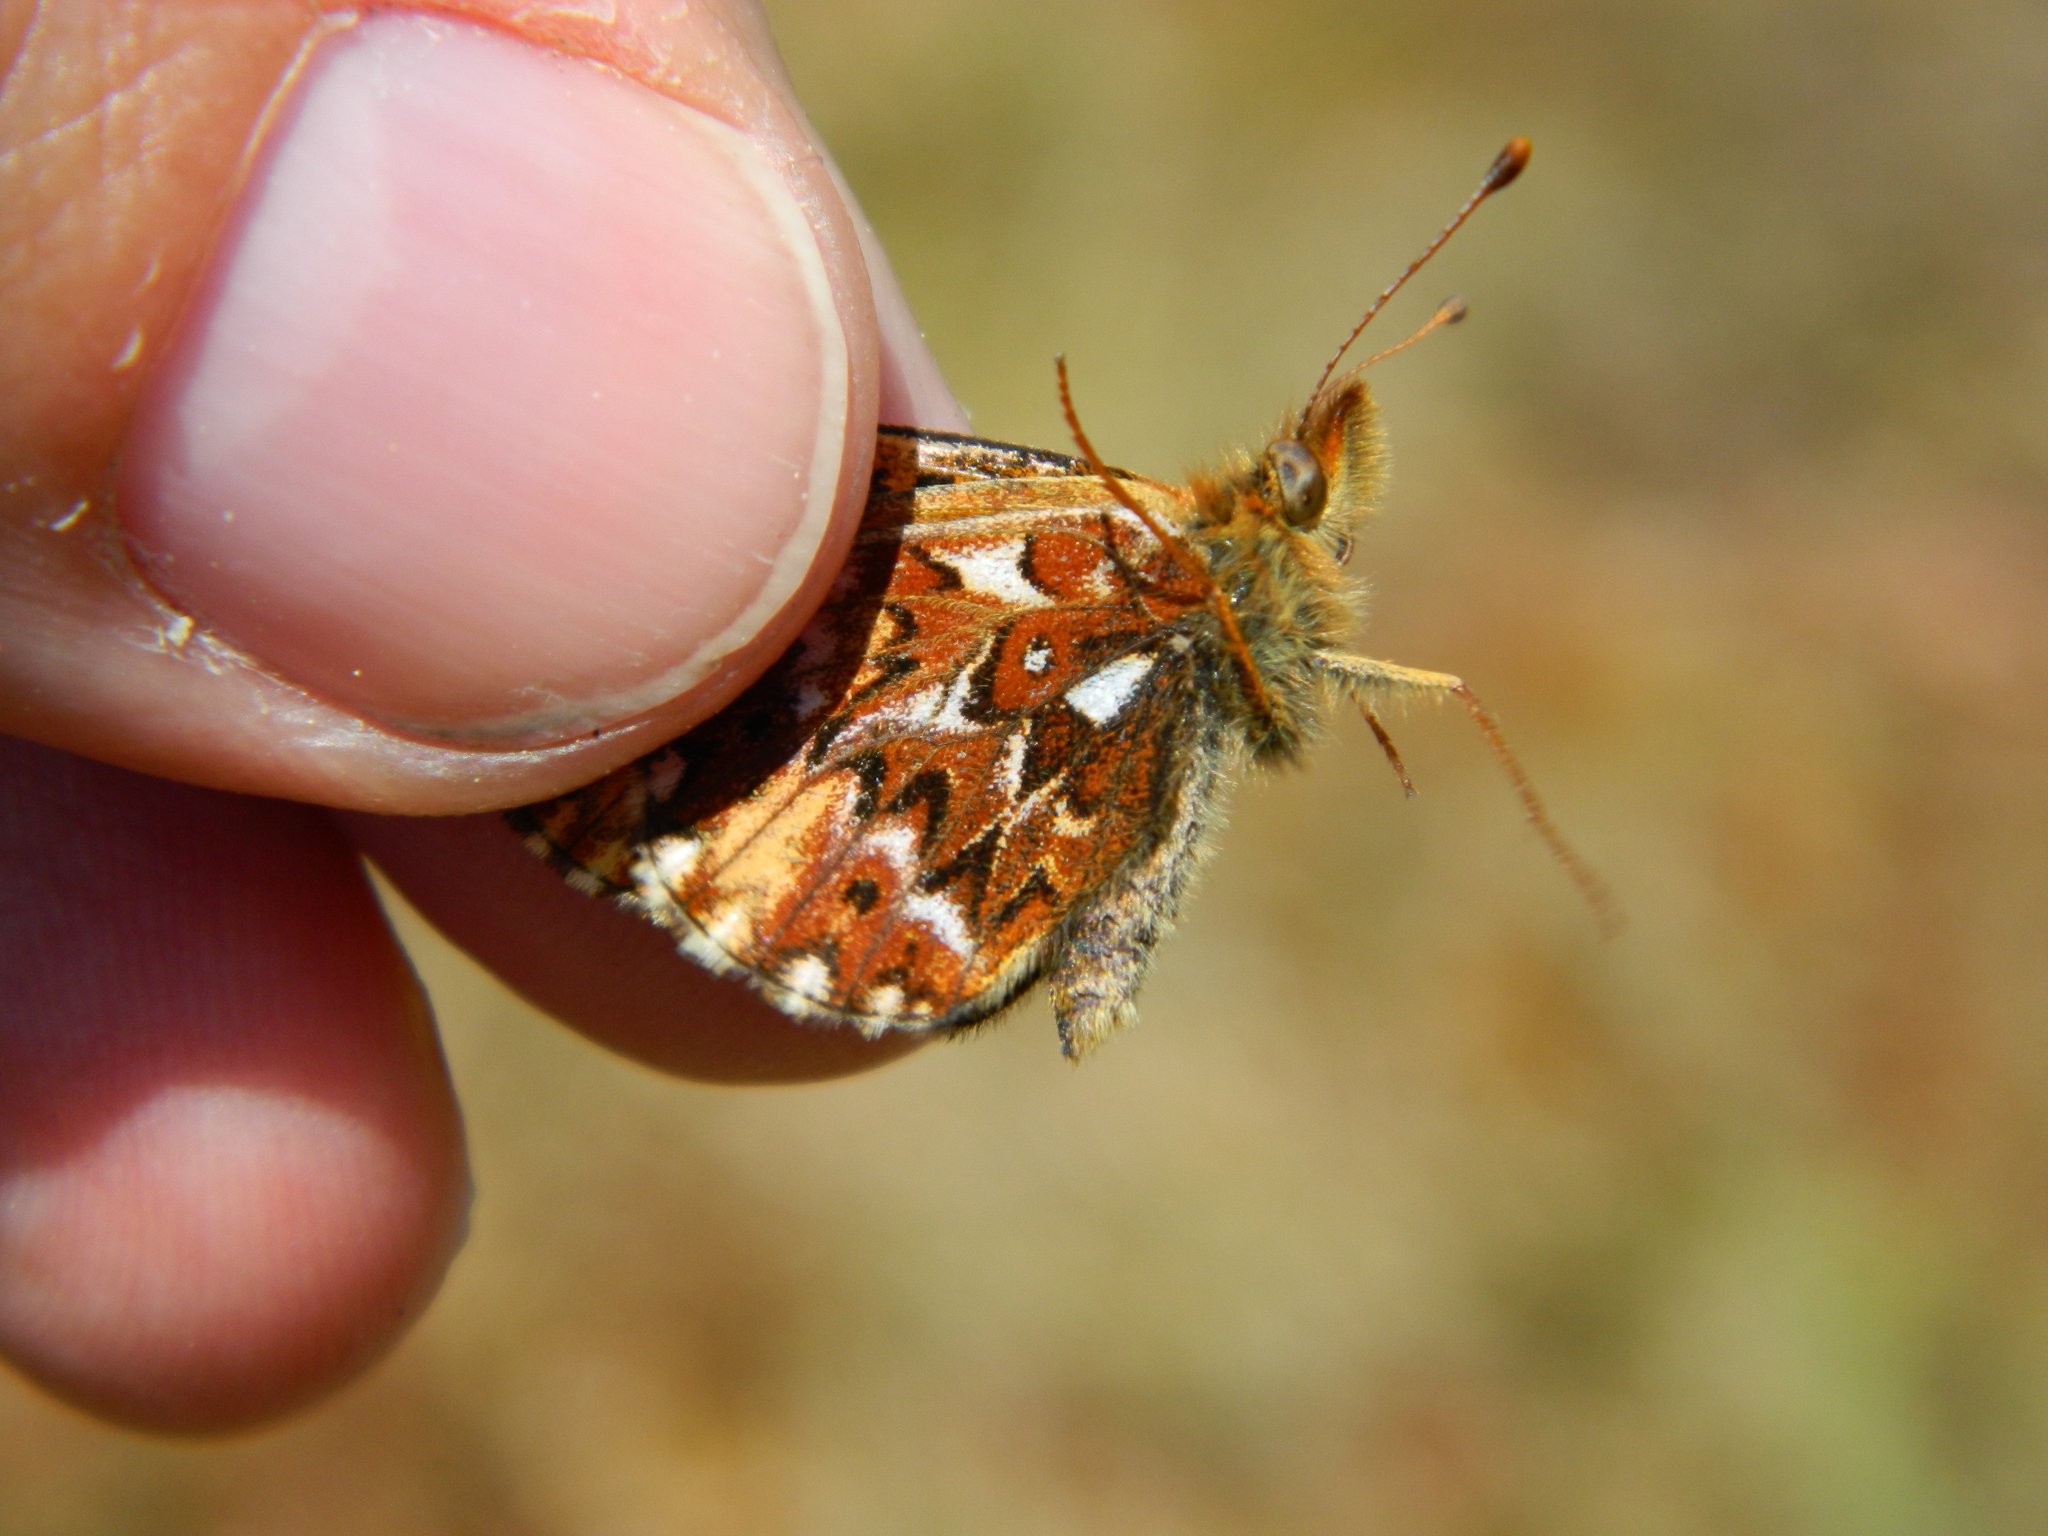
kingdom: Animalia
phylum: Arthropoda
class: Insecta
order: Lepidoptera
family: Nymphalidae
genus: Boloria
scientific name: Boloria freija
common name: Freija fritillary
